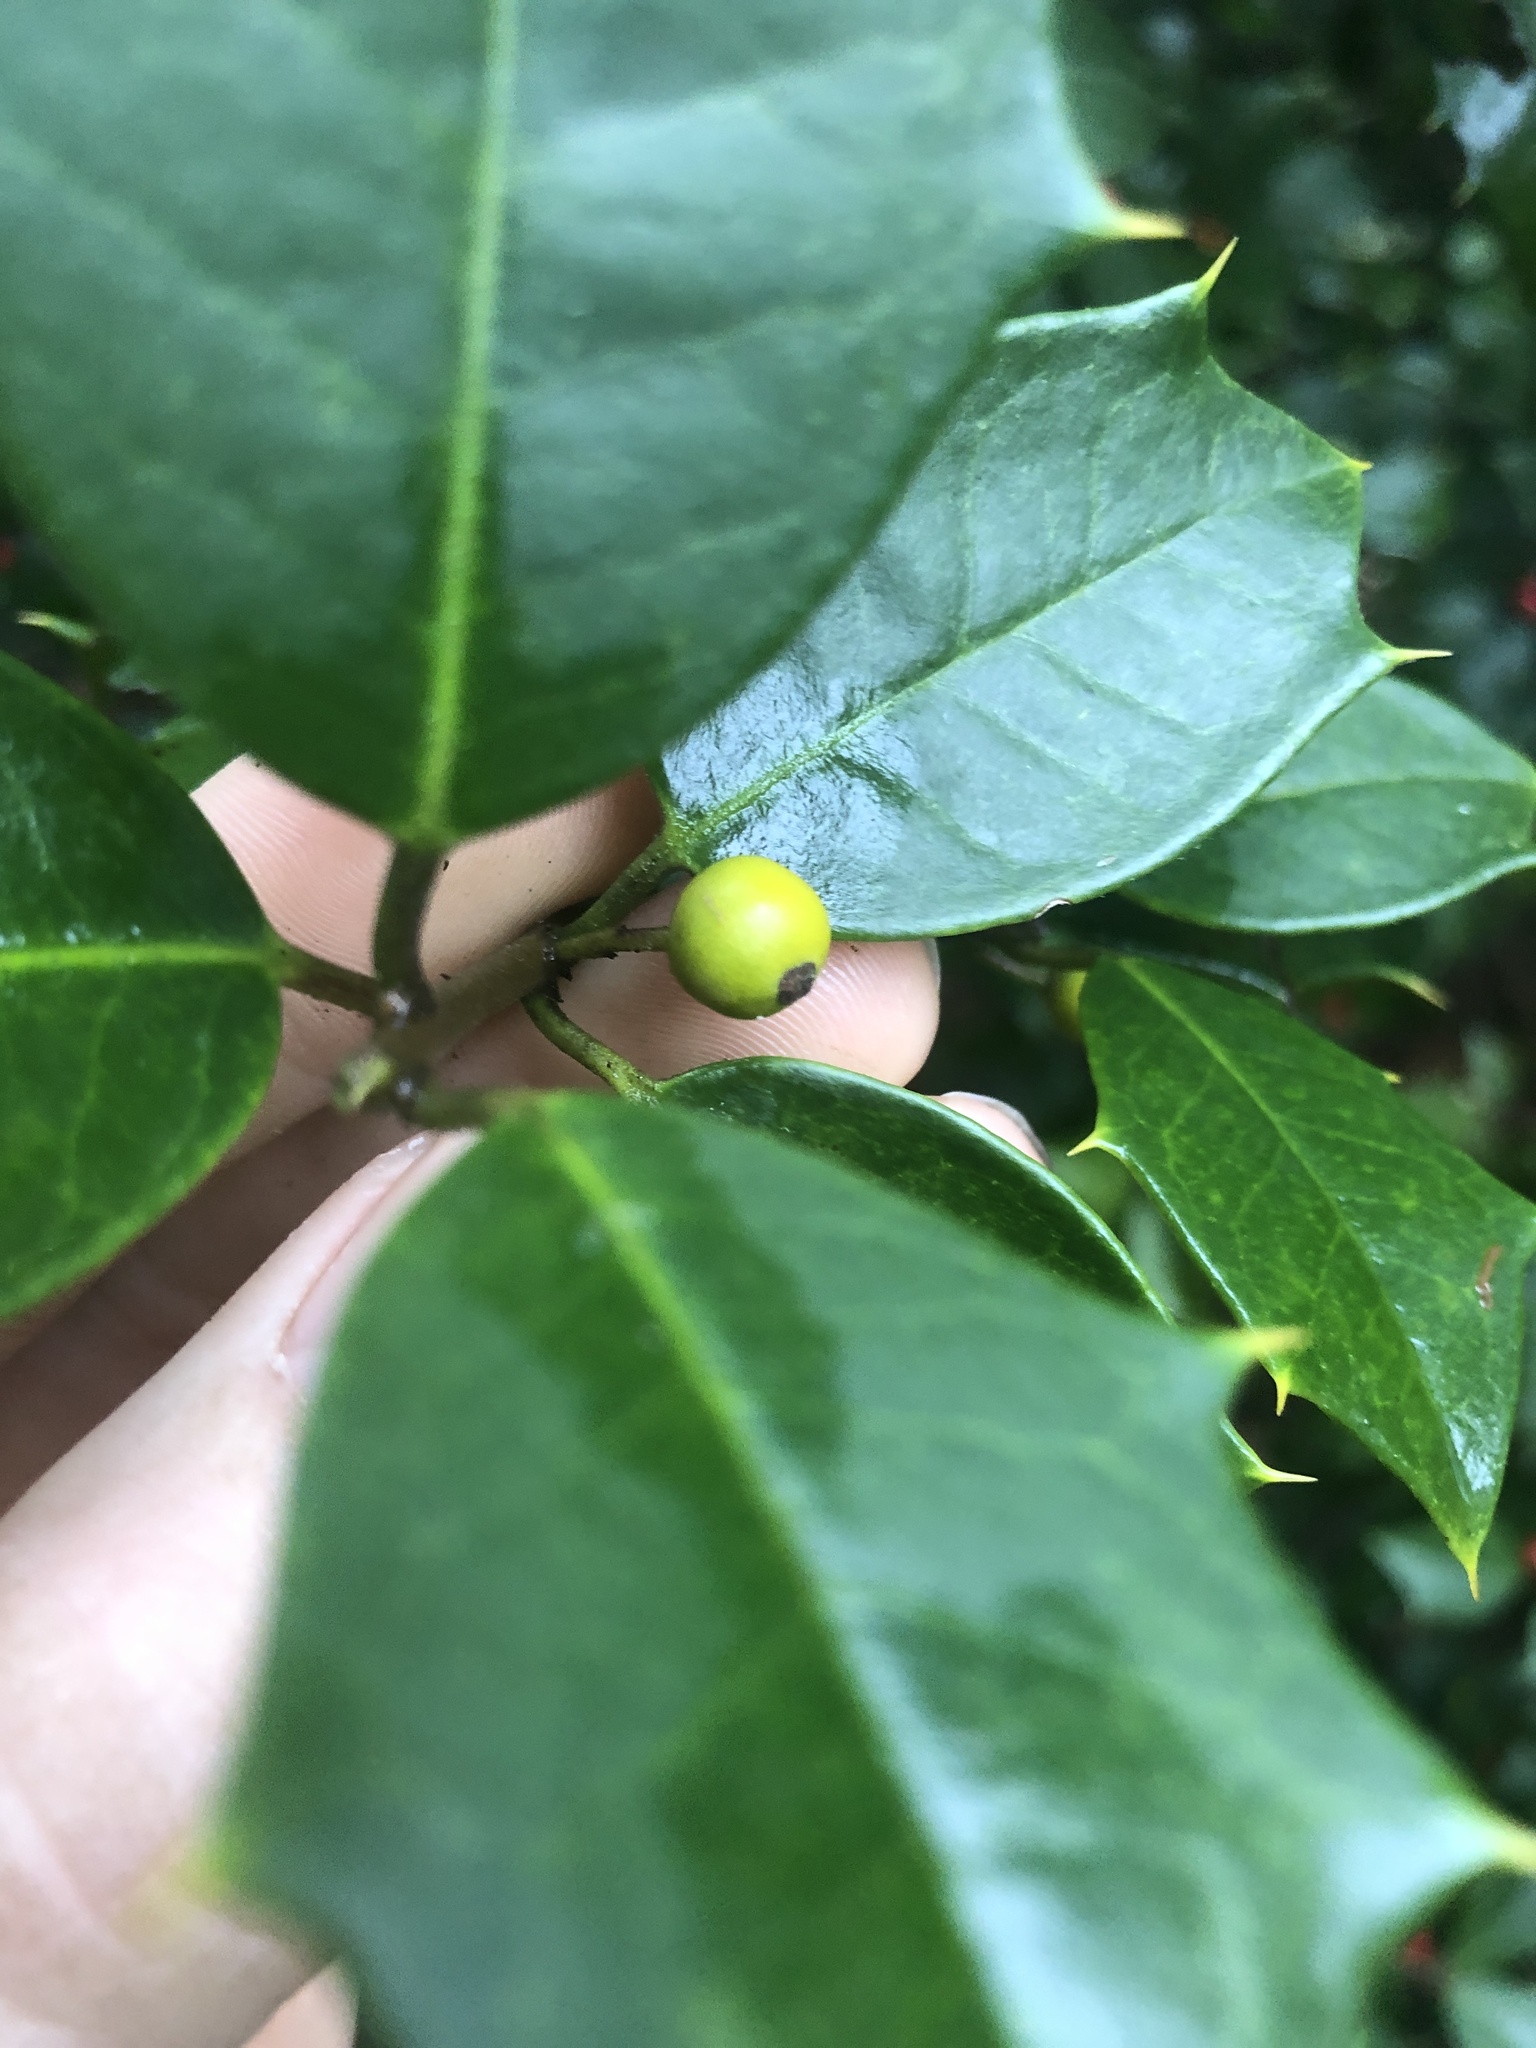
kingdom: Animalia
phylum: Arthropoda
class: Insecta
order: Diptera
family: Cecidomyiidae
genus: Asphondylia
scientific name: Asphondylia ilicicola
